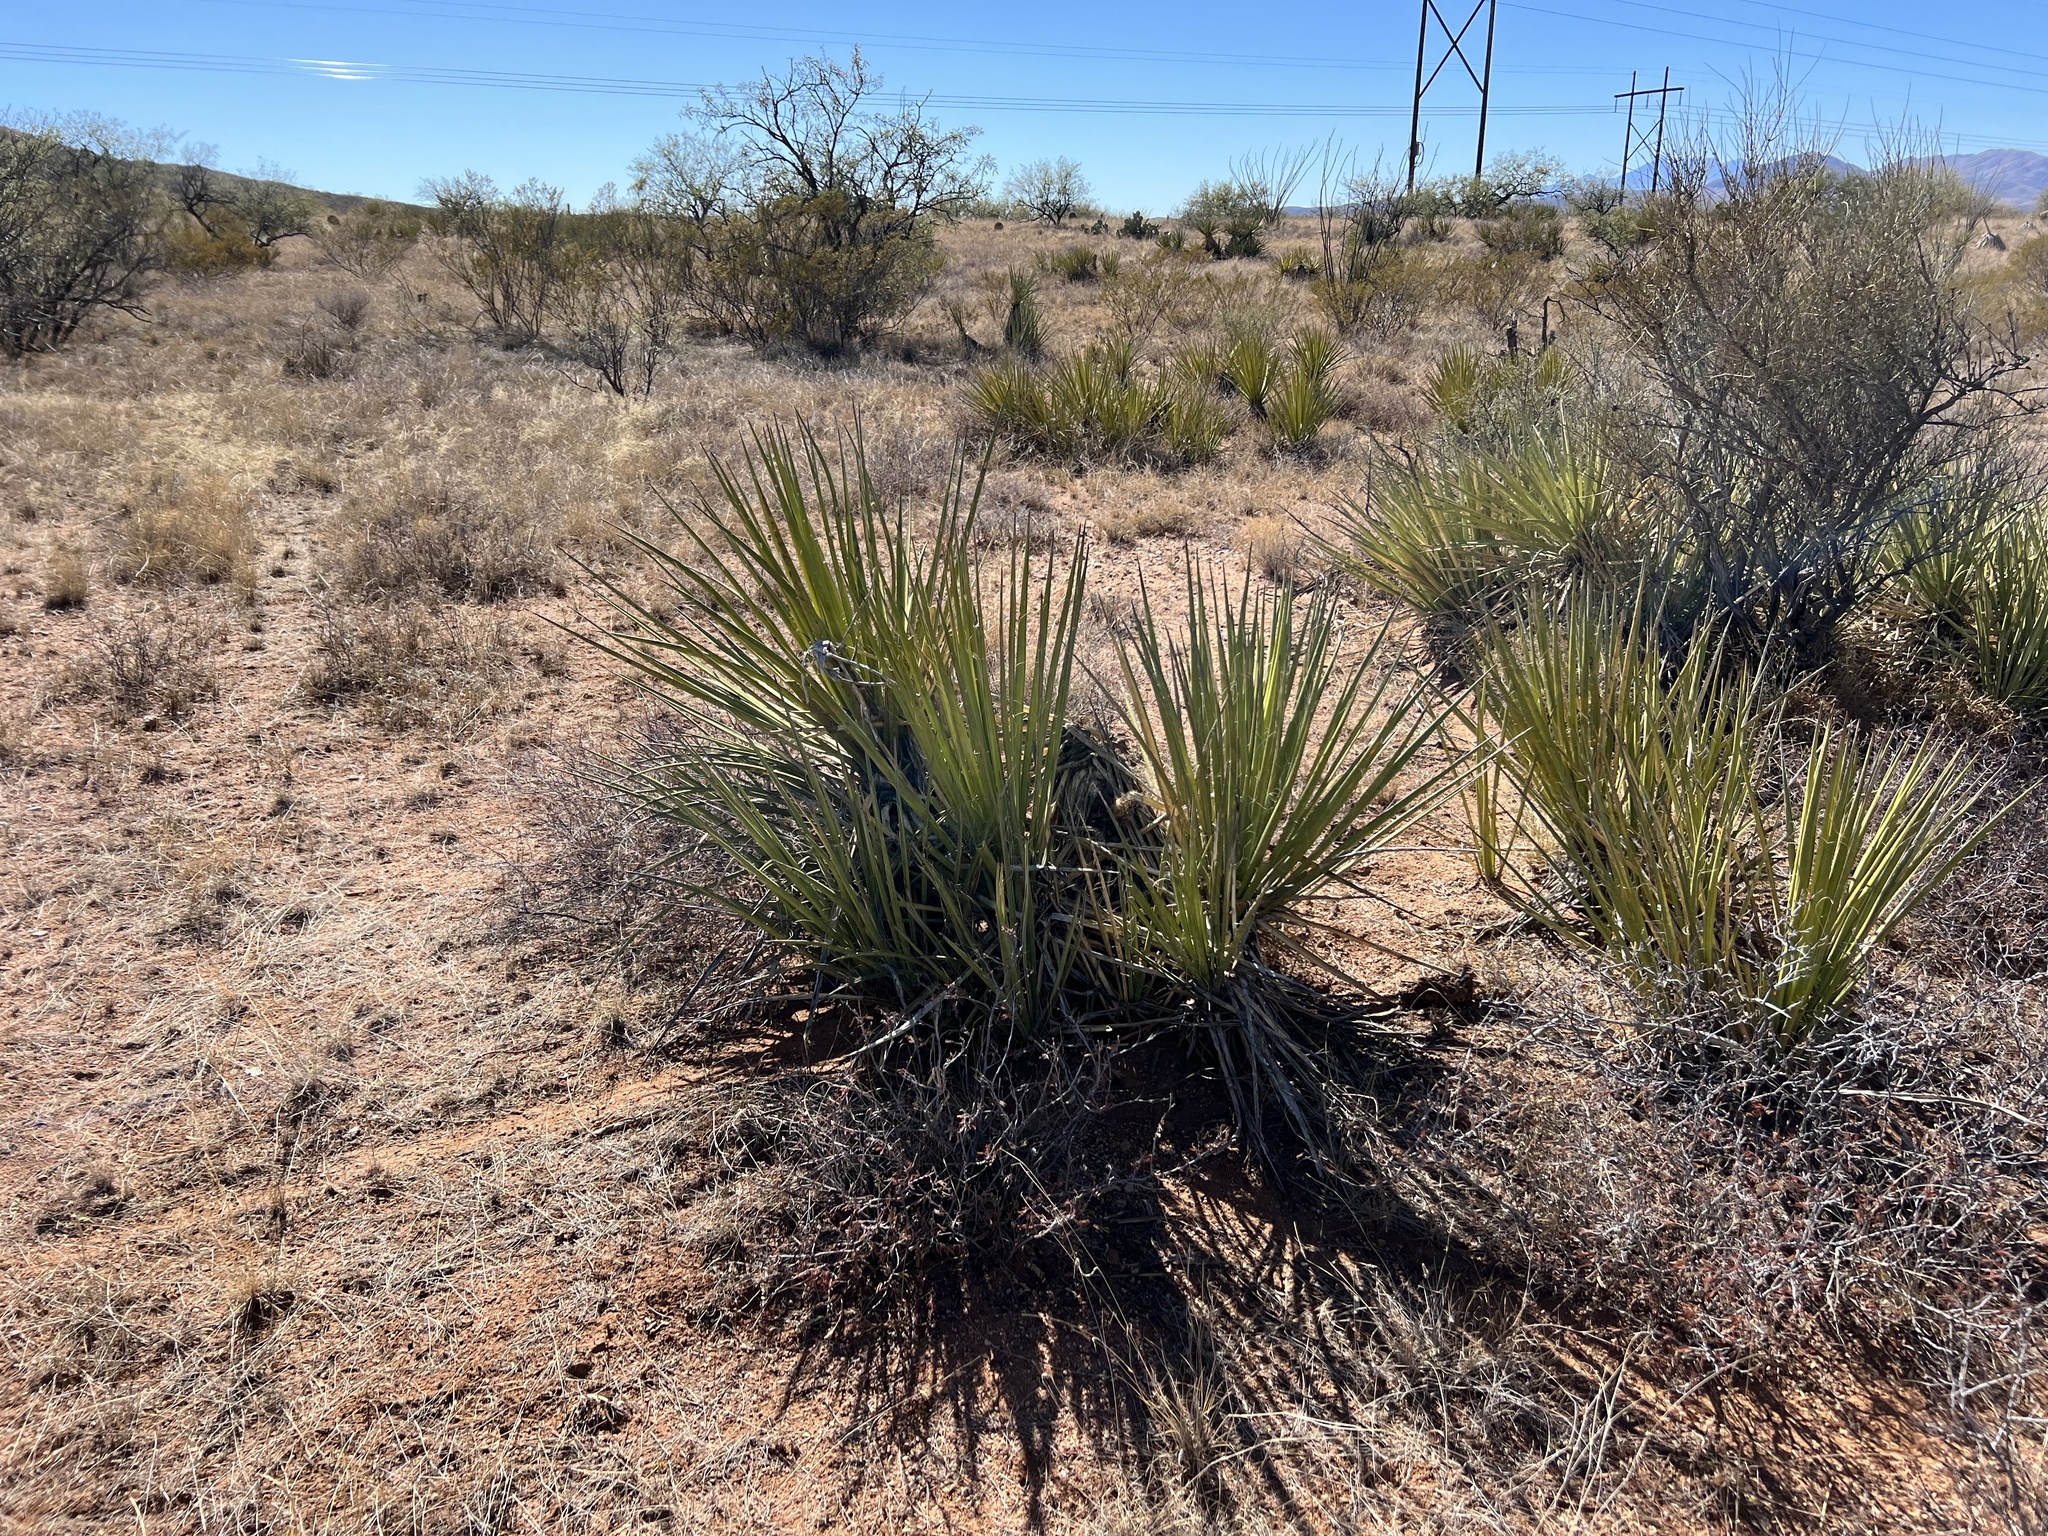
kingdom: Plantae
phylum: Tracheophyta
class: Liliopsida
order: Asparagales
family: Asparagaceae
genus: Yucca
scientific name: Yucca baccata
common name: Banana yucca
